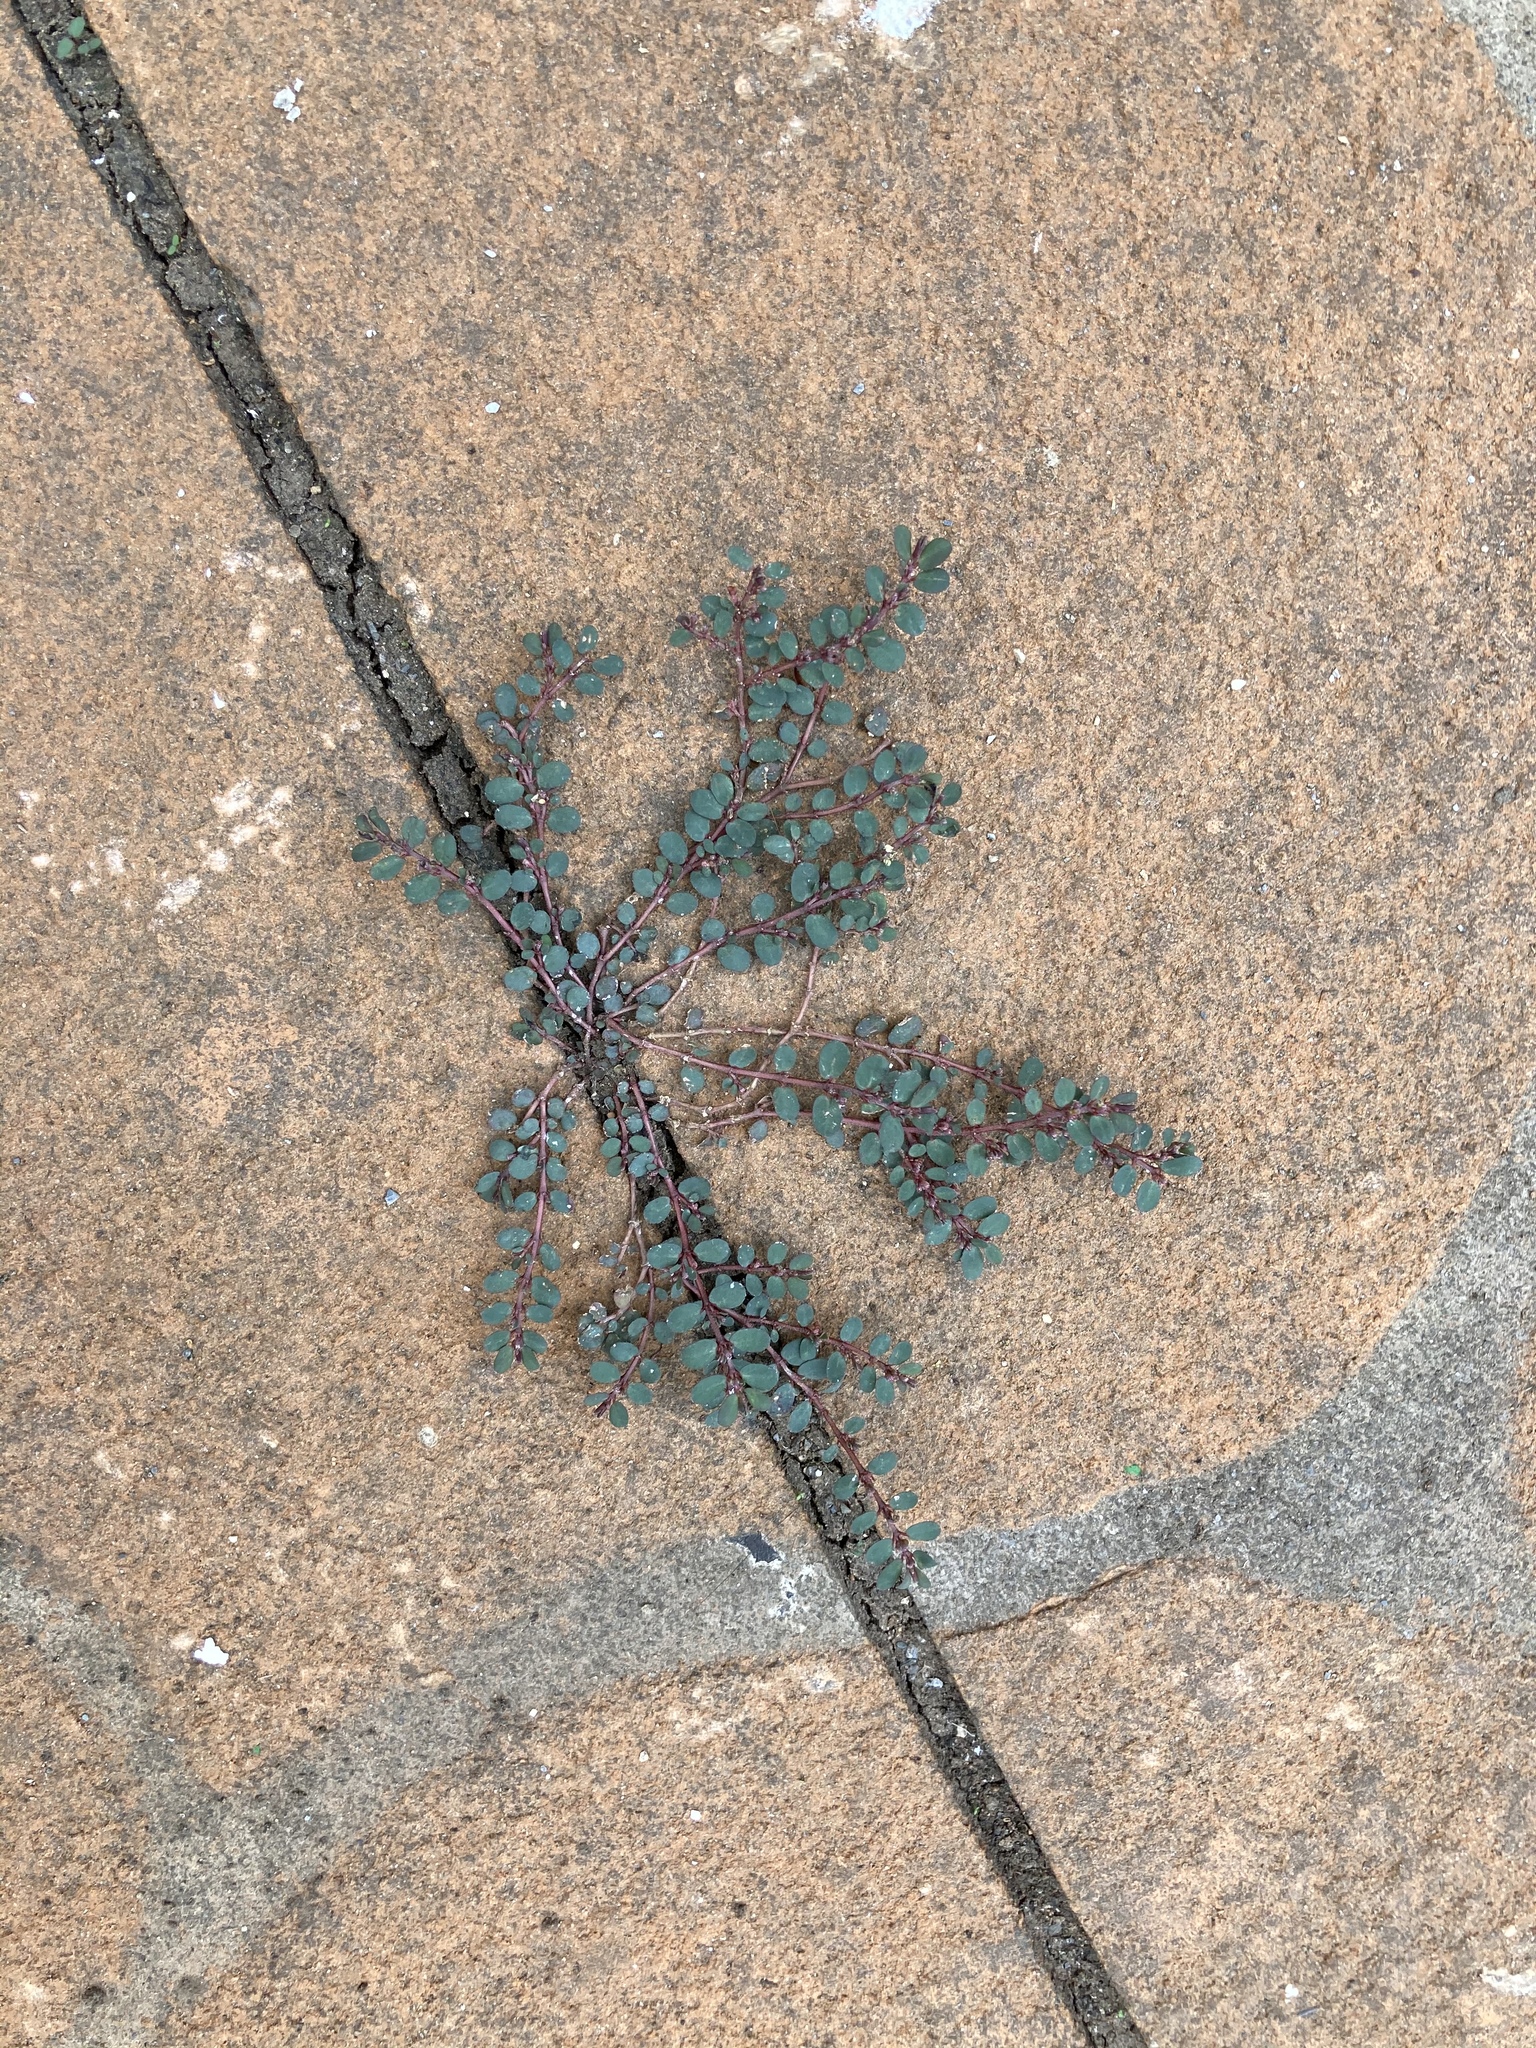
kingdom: Plantae
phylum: Tracheophyta
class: Magnoliopsida
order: Malpighiales
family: Euphorbiaceae
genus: Euphorbia
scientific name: Euphorbia prostrata
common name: Prostrate sandmat
